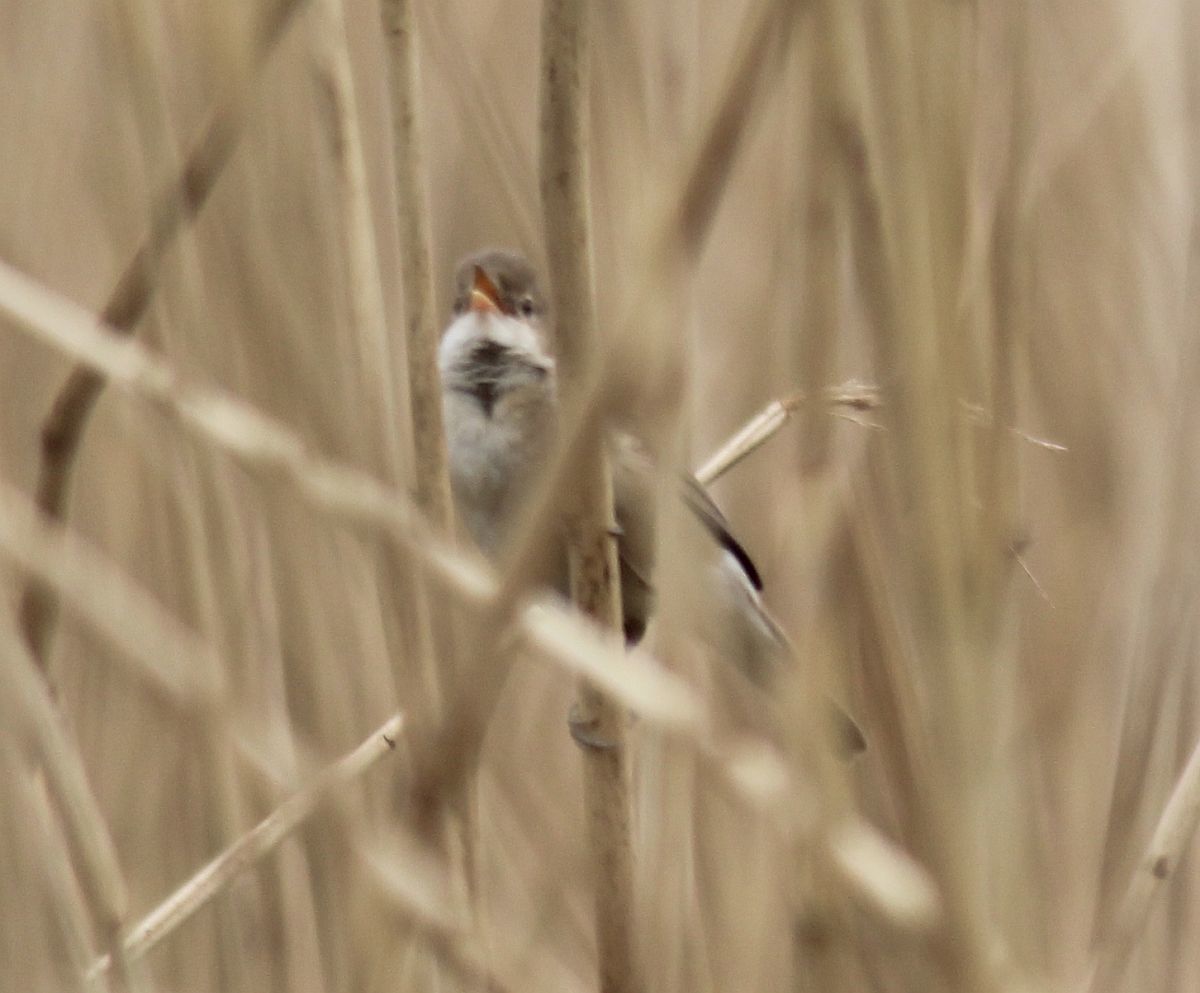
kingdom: Animalia
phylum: Chordata
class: Aves
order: Passeriformes
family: Acrocephalidae
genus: Acrocephalus
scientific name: Acrocephalus scirpaceus
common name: Eurasian reed warbler
